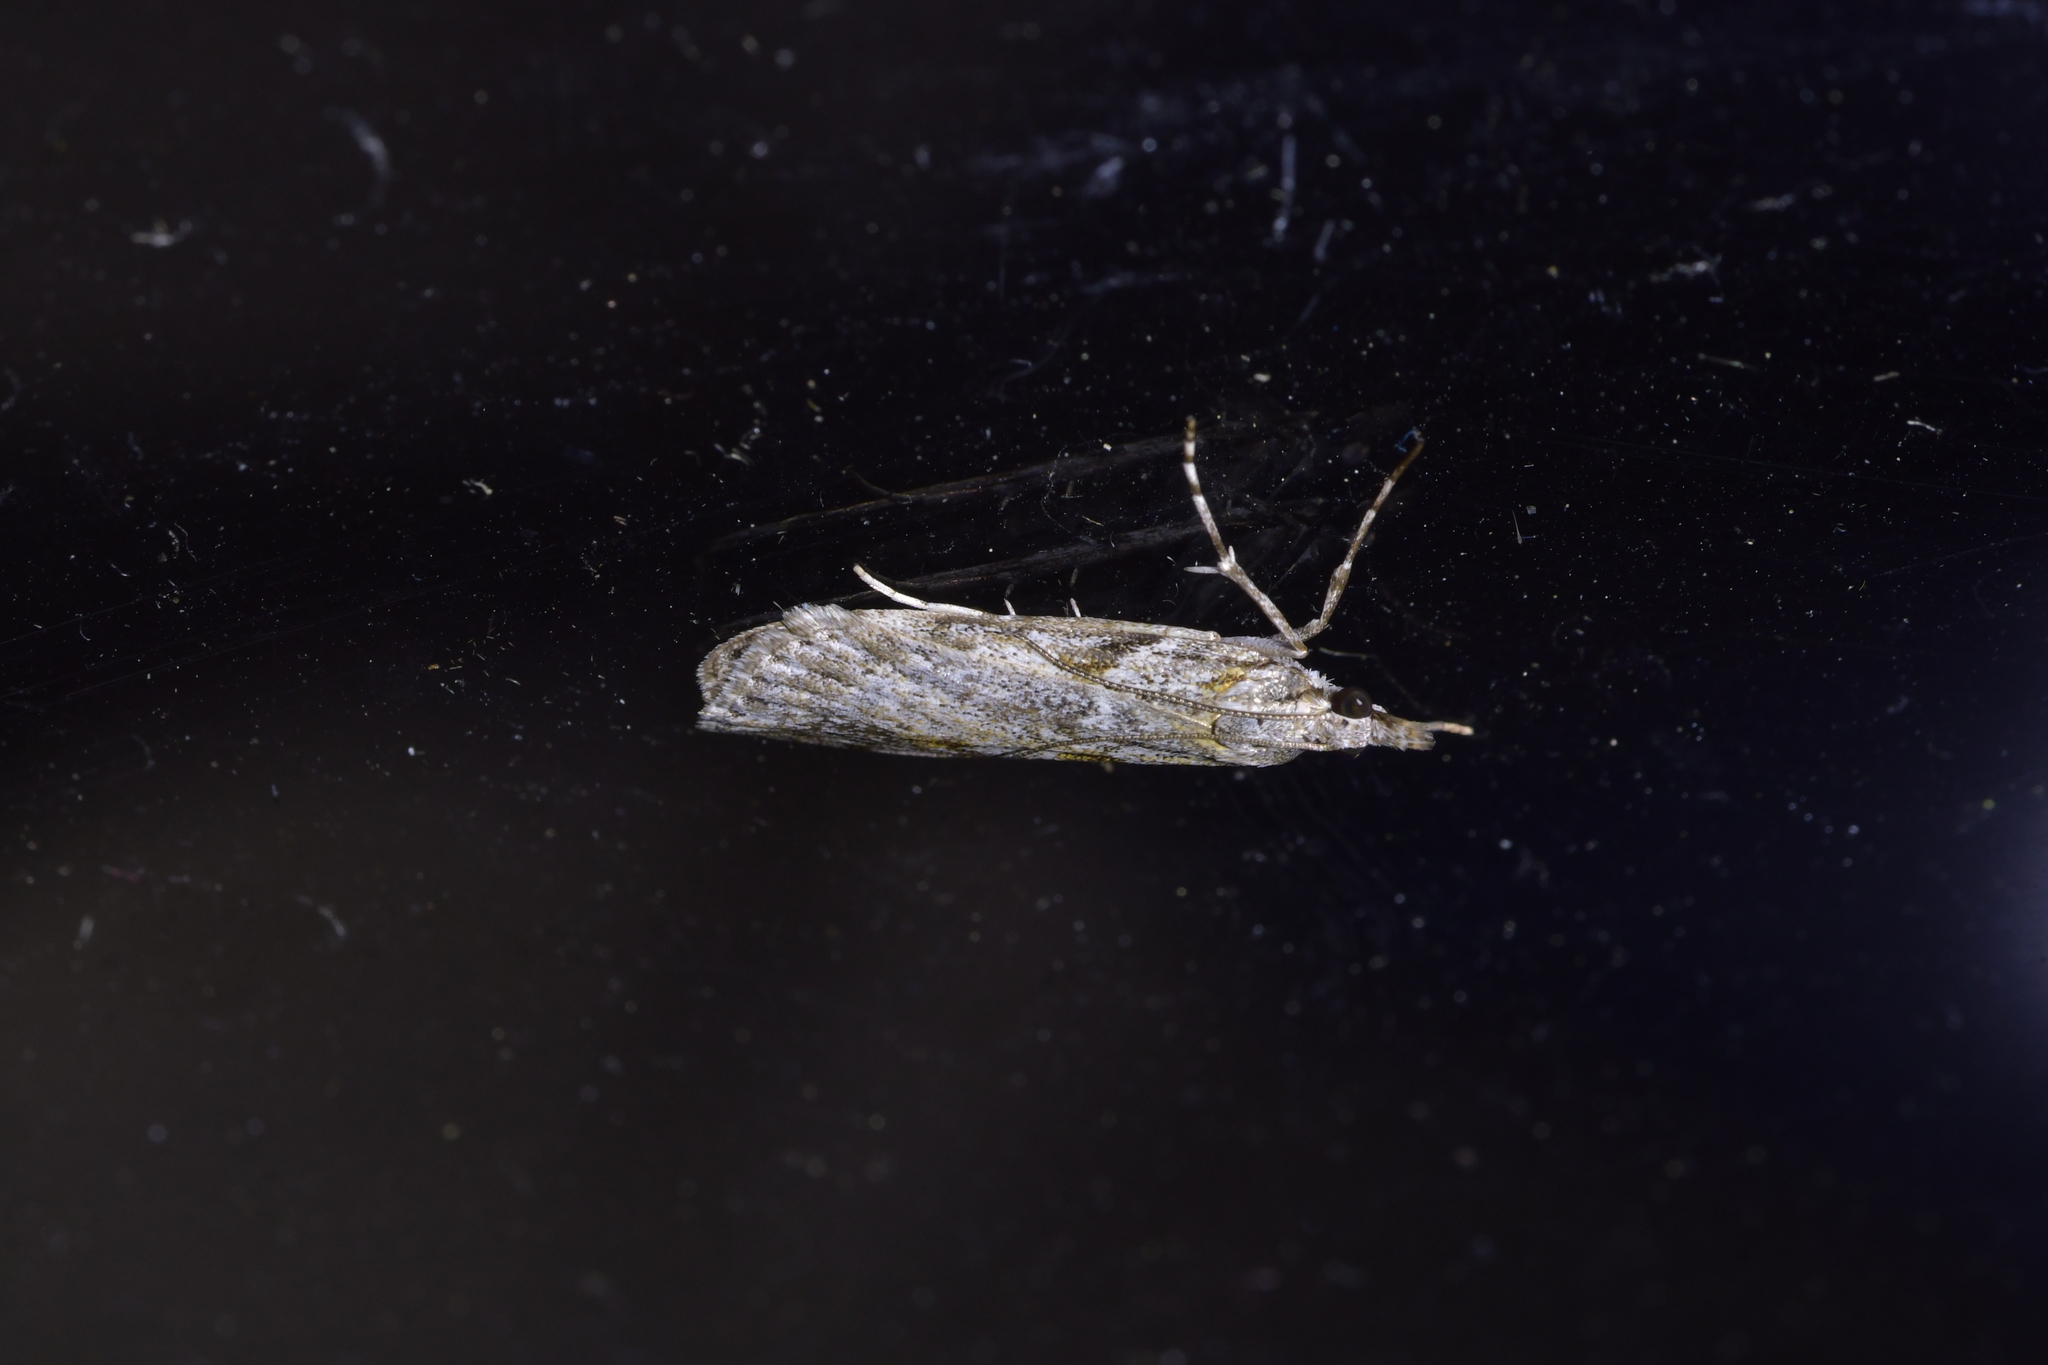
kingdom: Animalia
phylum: Arthropoda
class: Insecta
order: Lepidoptera
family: Crambidae
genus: Scoparia
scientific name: Scoparia halopis
